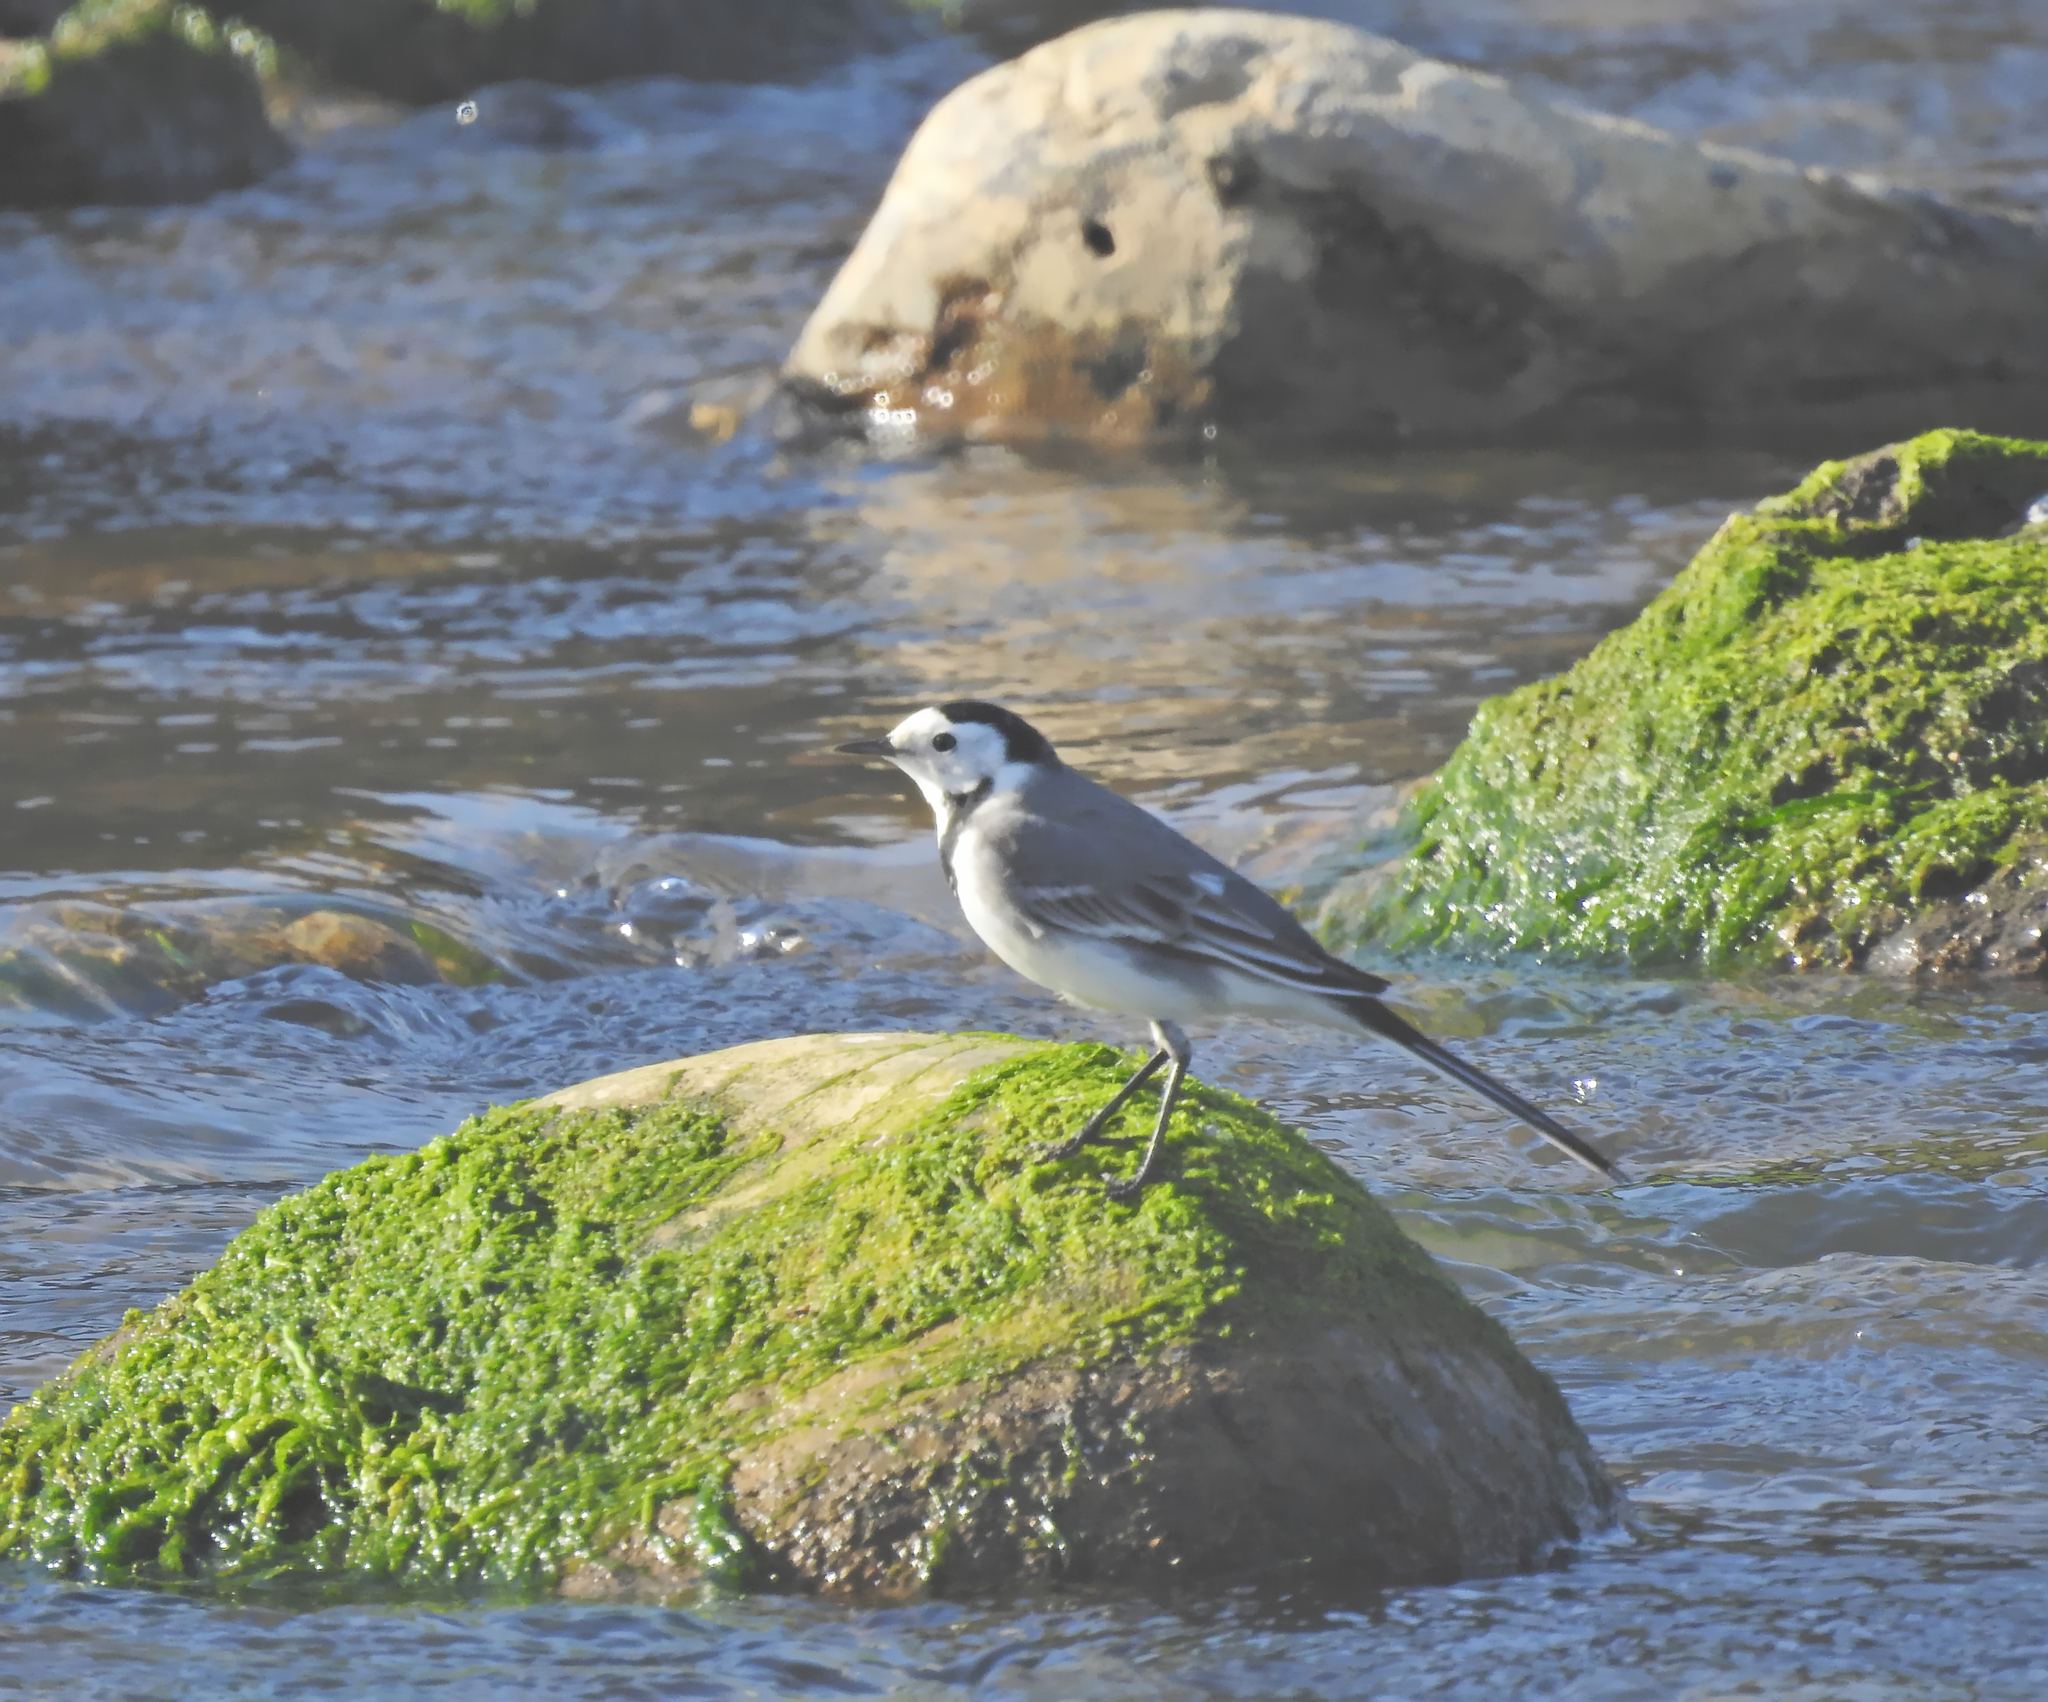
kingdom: Animalia
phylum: Chordata
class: Aves
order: Passeriformes
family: Motacillidae
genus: Motacilla
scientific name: Motacilla alba
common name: White wagtail
